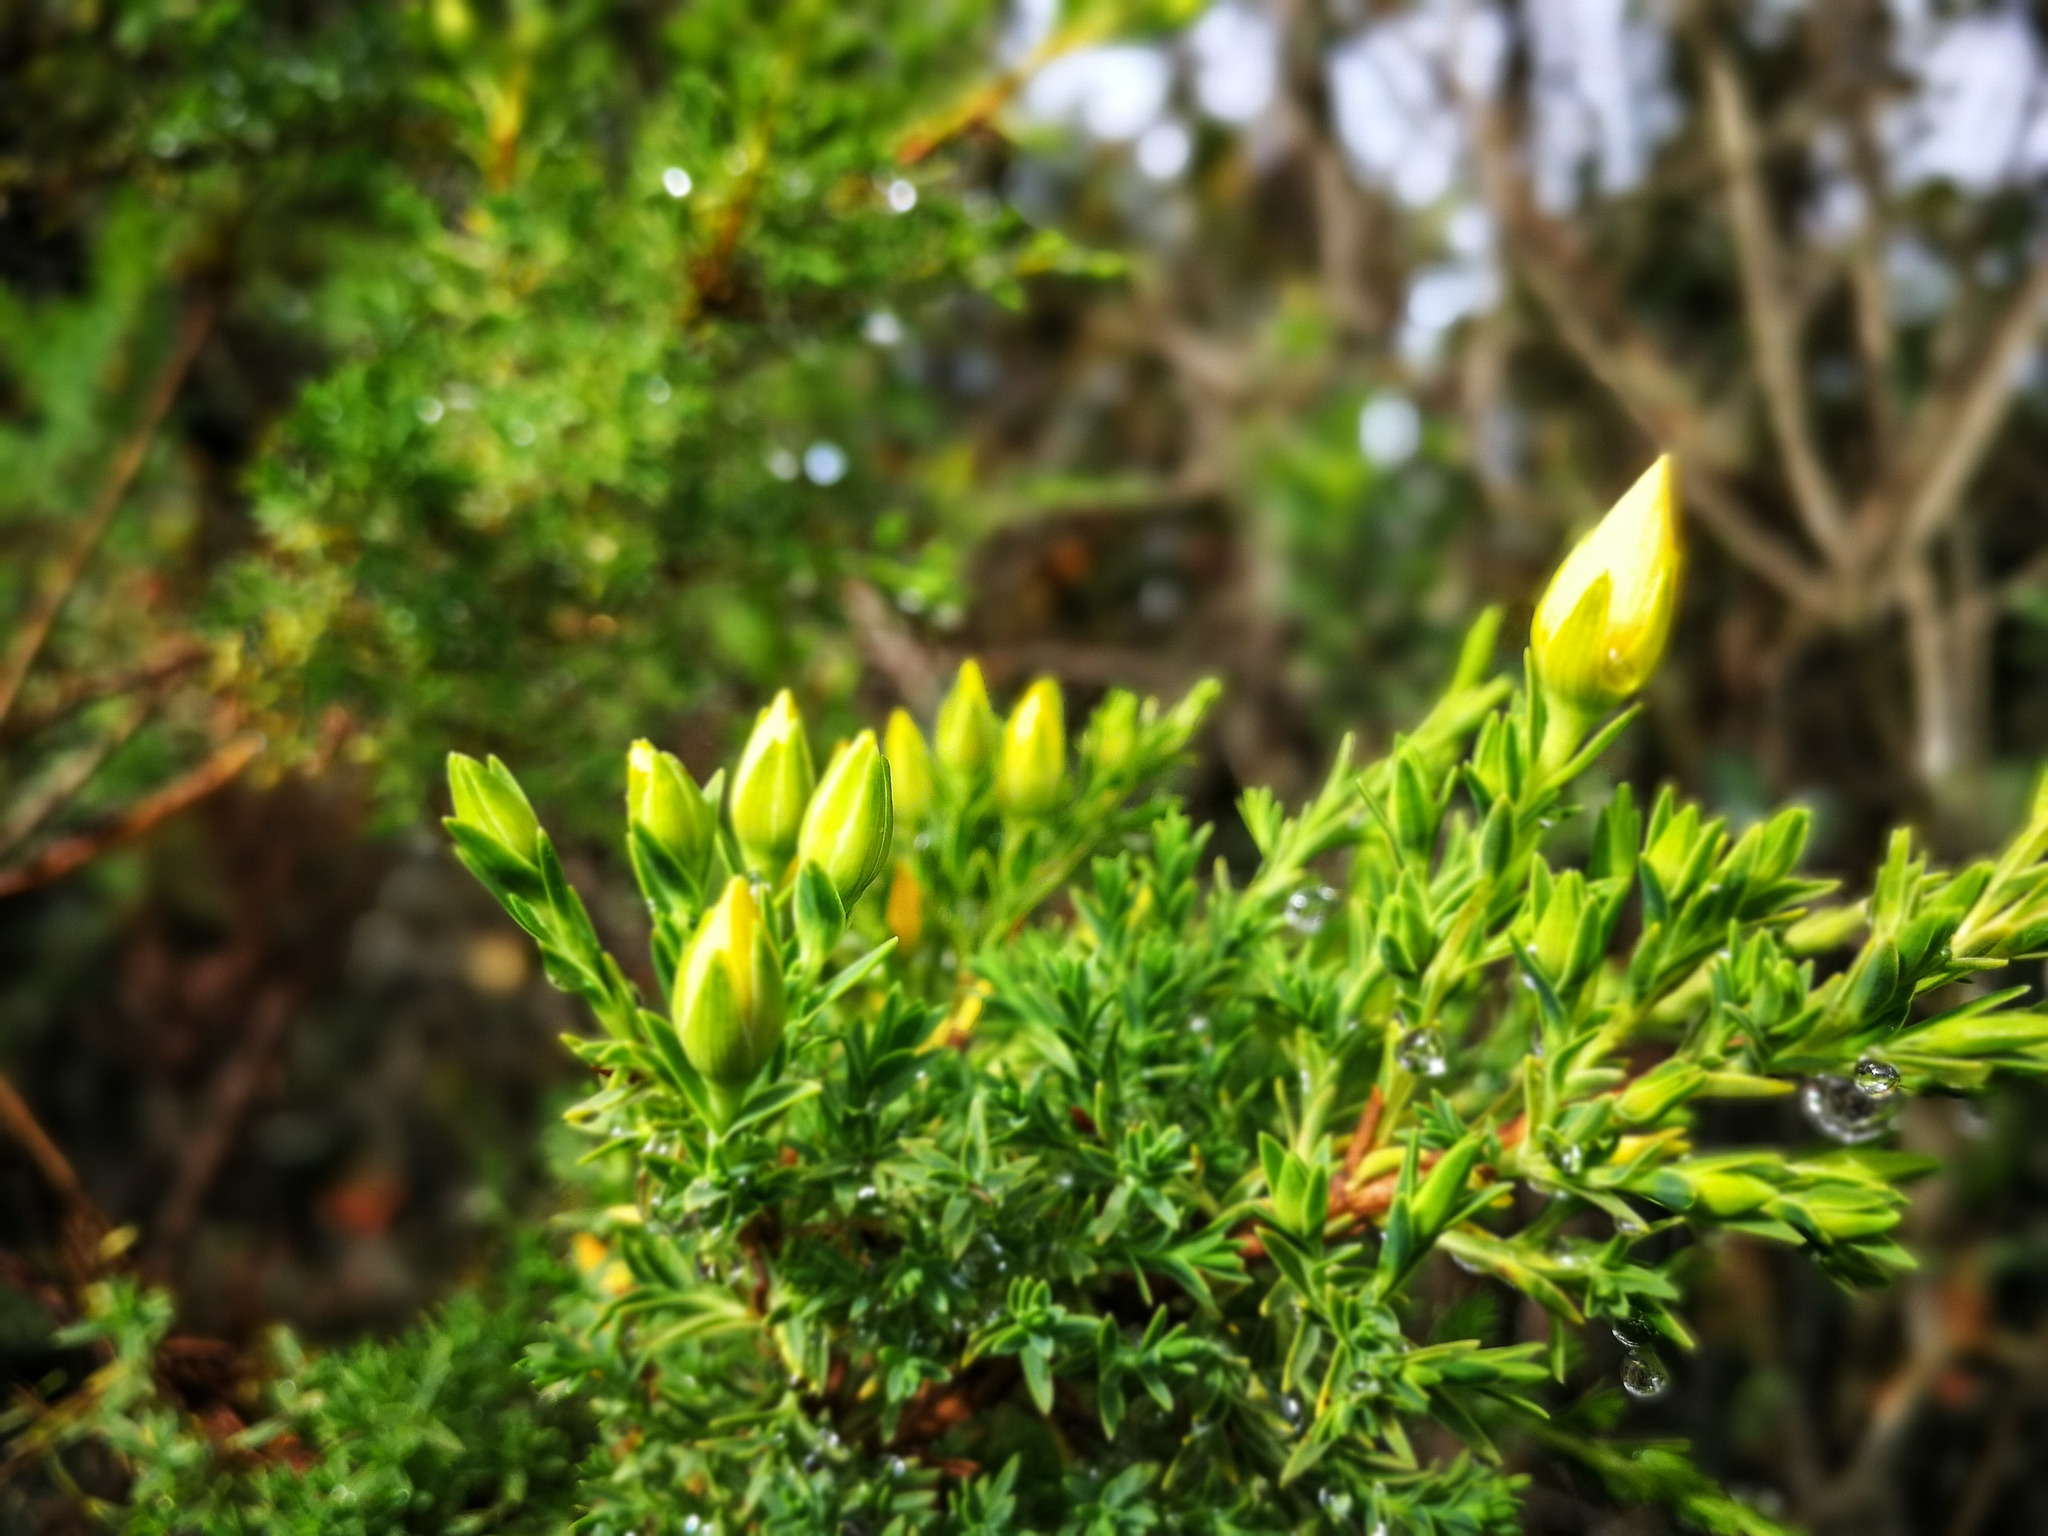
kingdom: Plantae
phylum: Tracheophyta
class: Magnoliopsida
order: Malpighiales
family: Hypericaceae
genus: Hypericum
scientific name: Hypericum laricifolium
